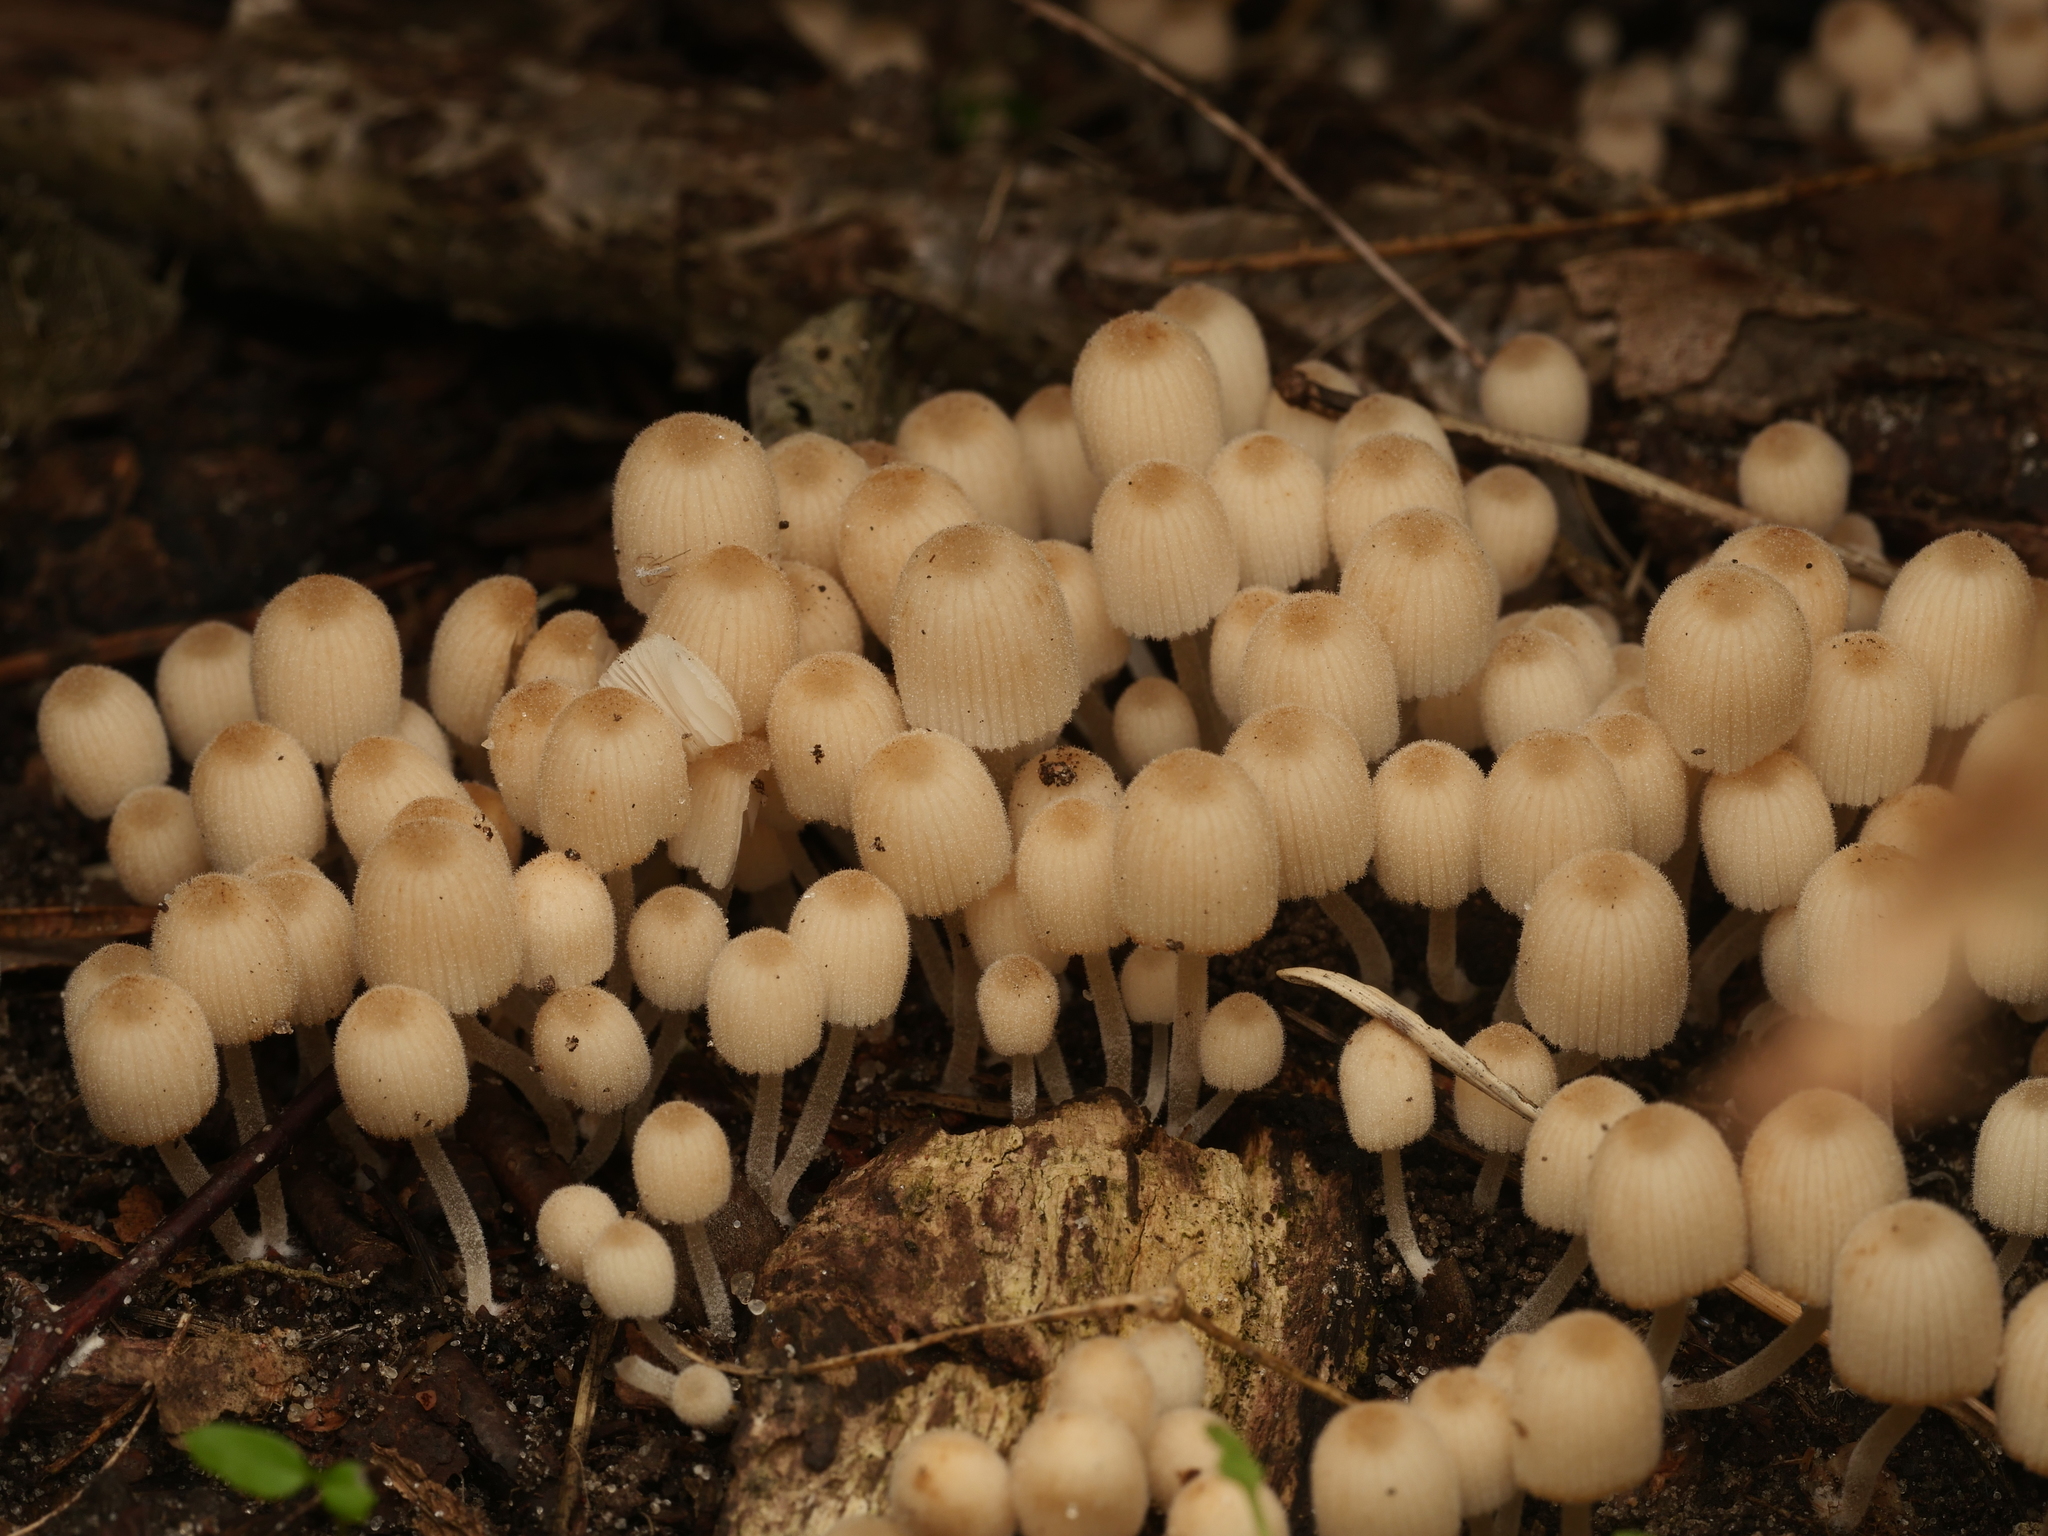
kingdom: Fungi
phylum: Basidiomycota
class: Agaricomycetes
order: Agaricales
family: Psathyrellaceae
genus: Coprinellus
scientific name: Coprinellus disseminatus
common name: Fairies' bonnets
